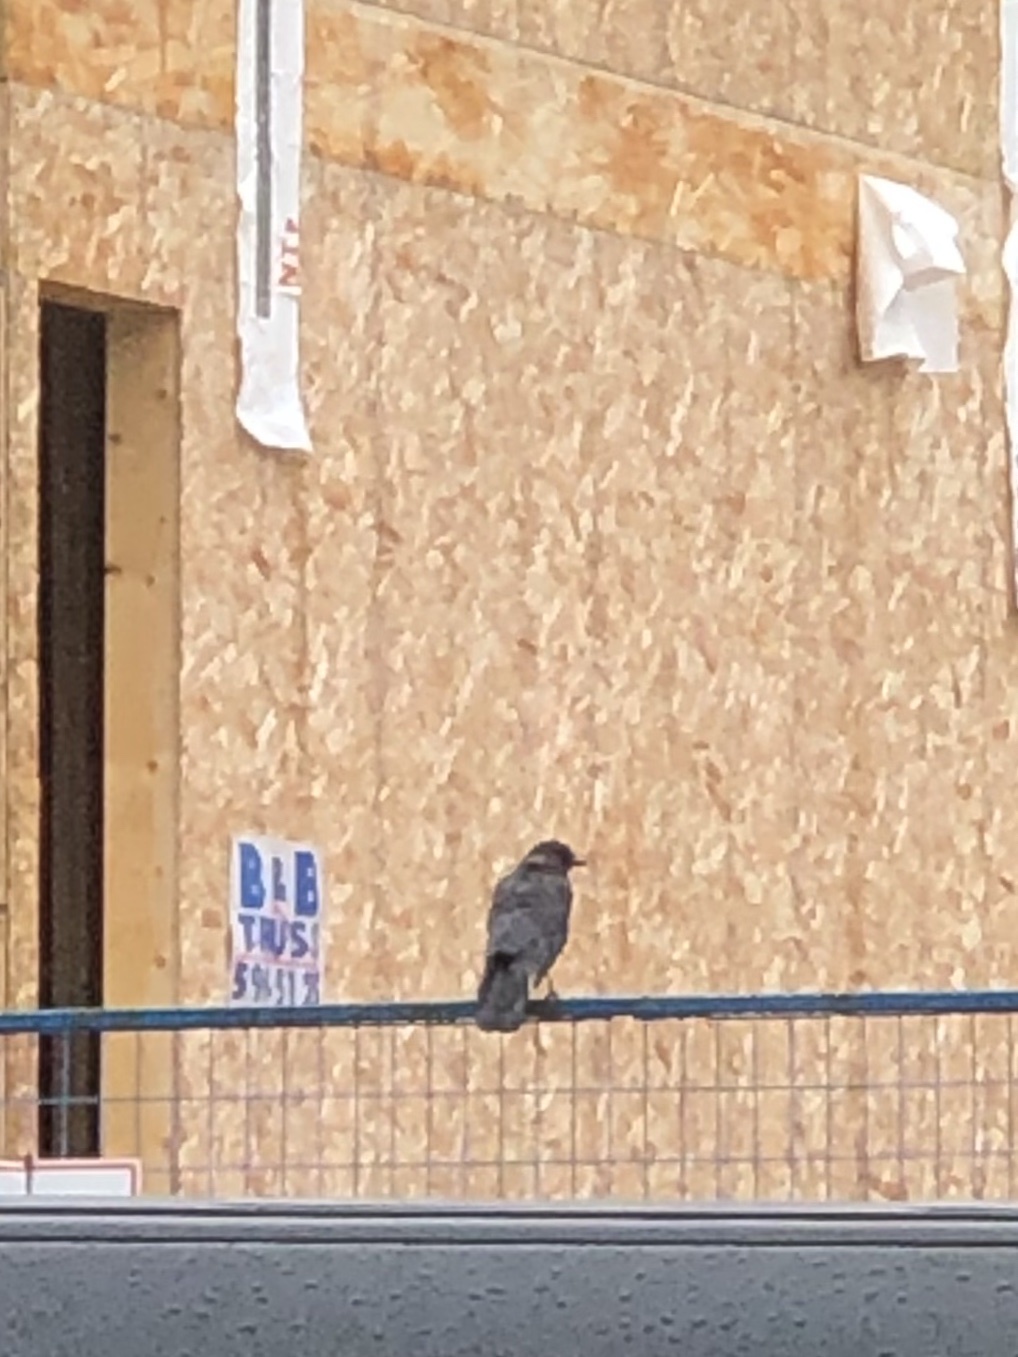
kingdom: Animalia
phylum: Chordata
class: Aves
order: Passeriformes
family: Corvidae
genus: Corvus
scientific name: Corvus brachyrhynchos
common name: American crow
